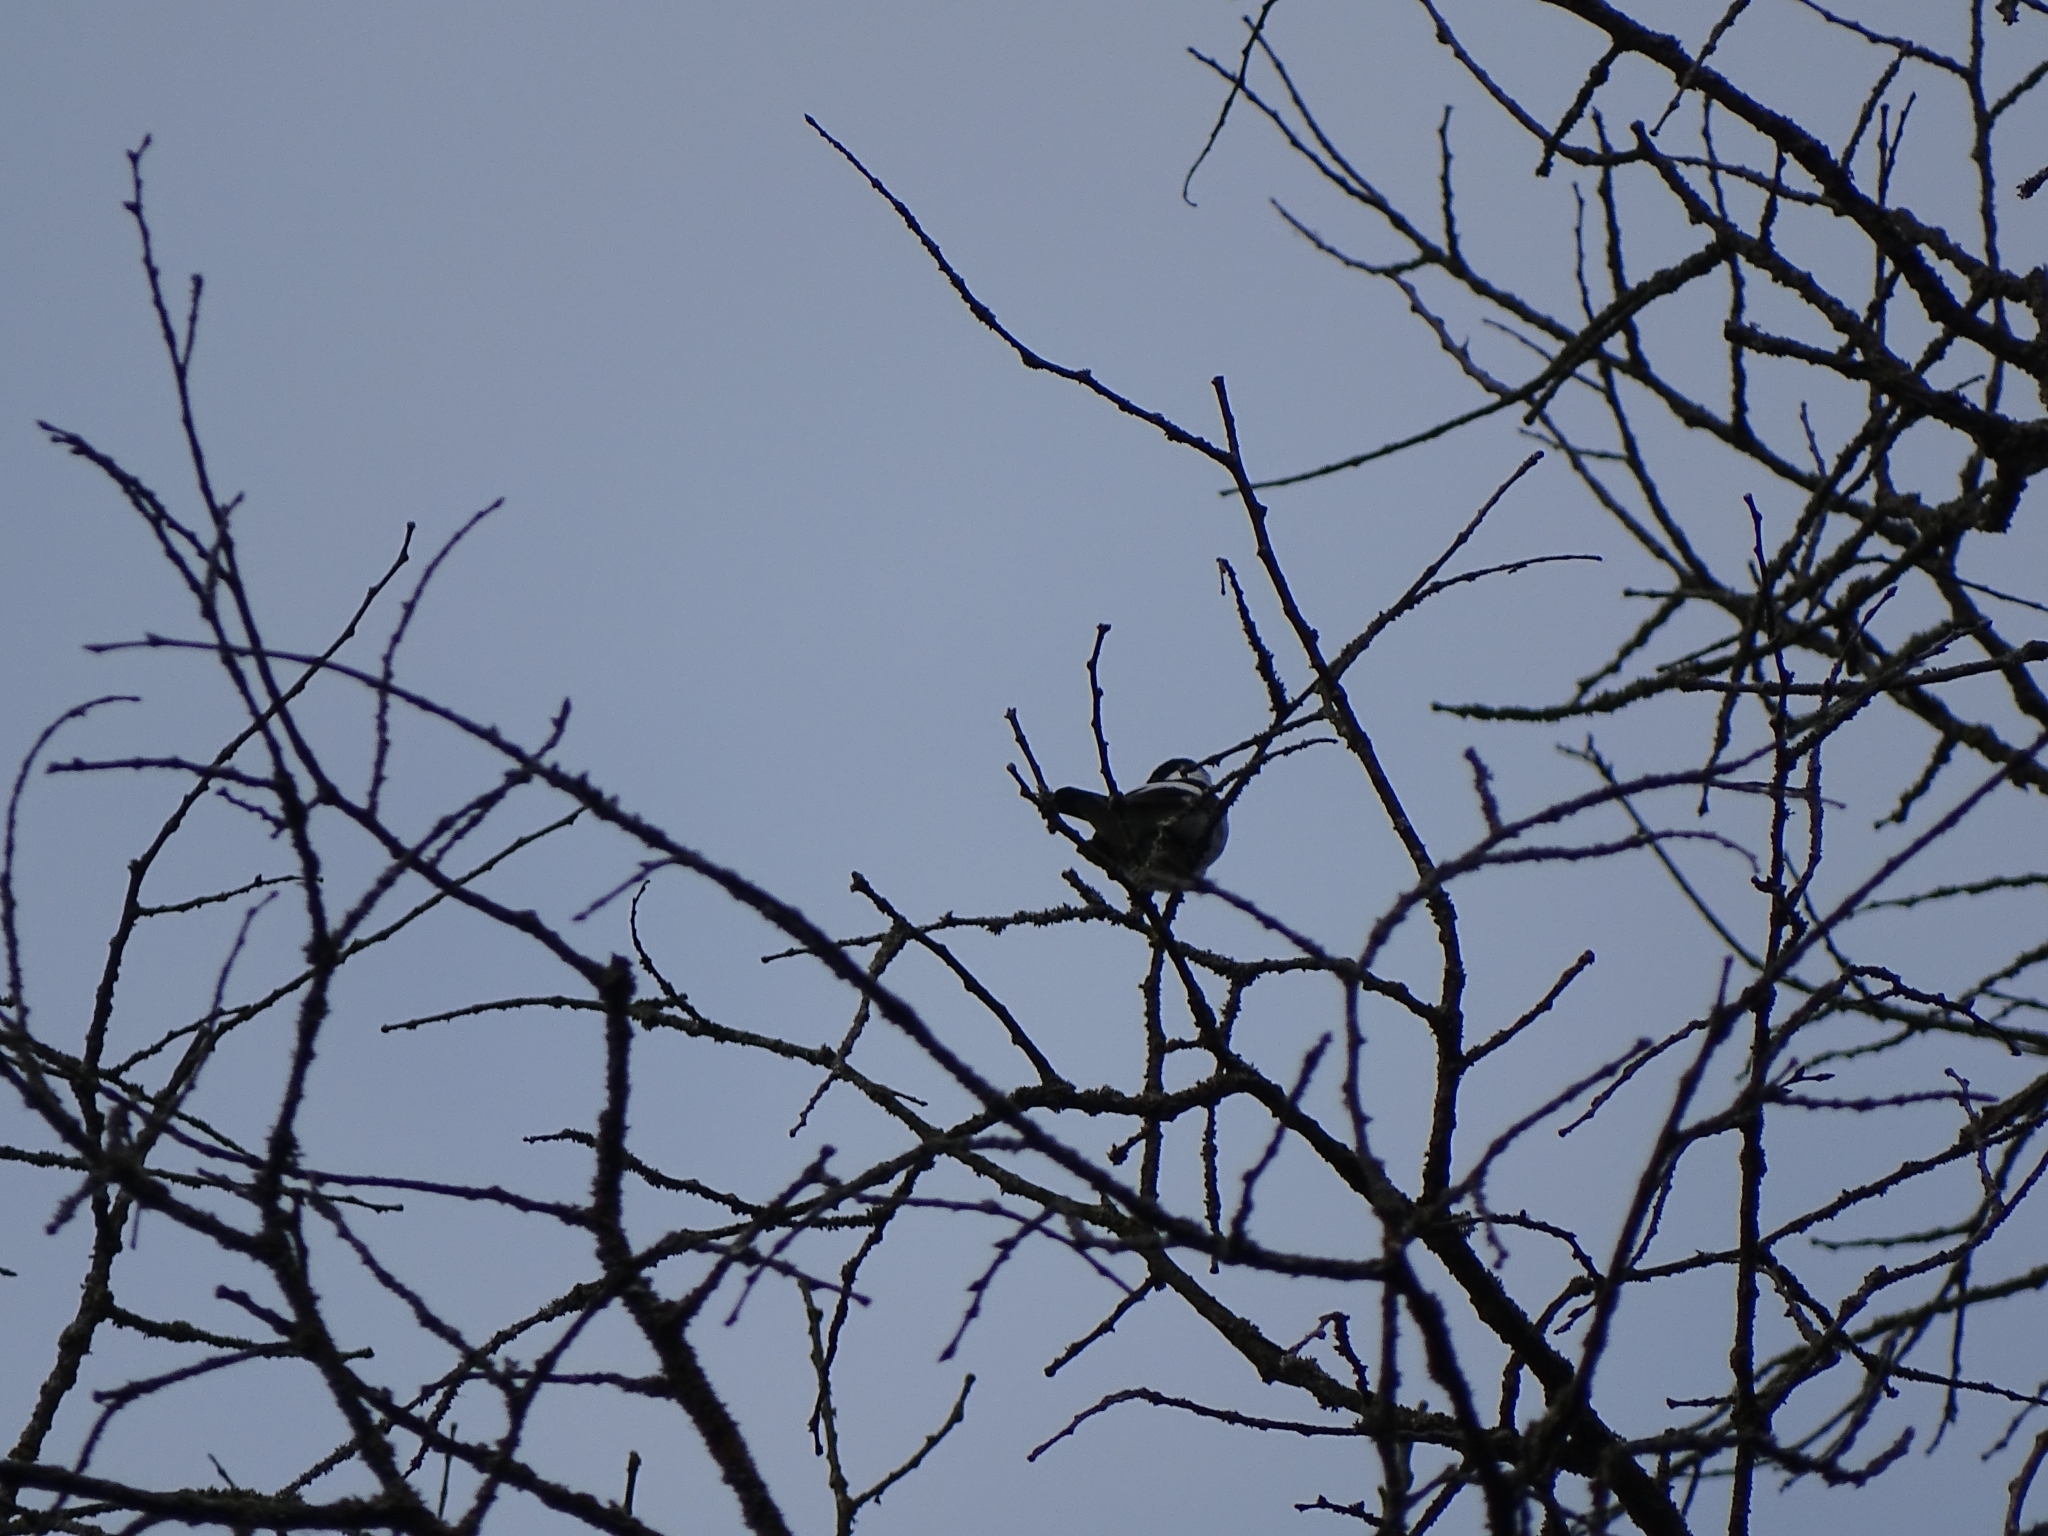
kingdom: Animalia
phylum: Chordata
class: Aves
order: Passeriformes
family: Muscicapidae
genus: Ficedula
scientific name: Ficedula hypoleuca
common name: European pied flycatcher
